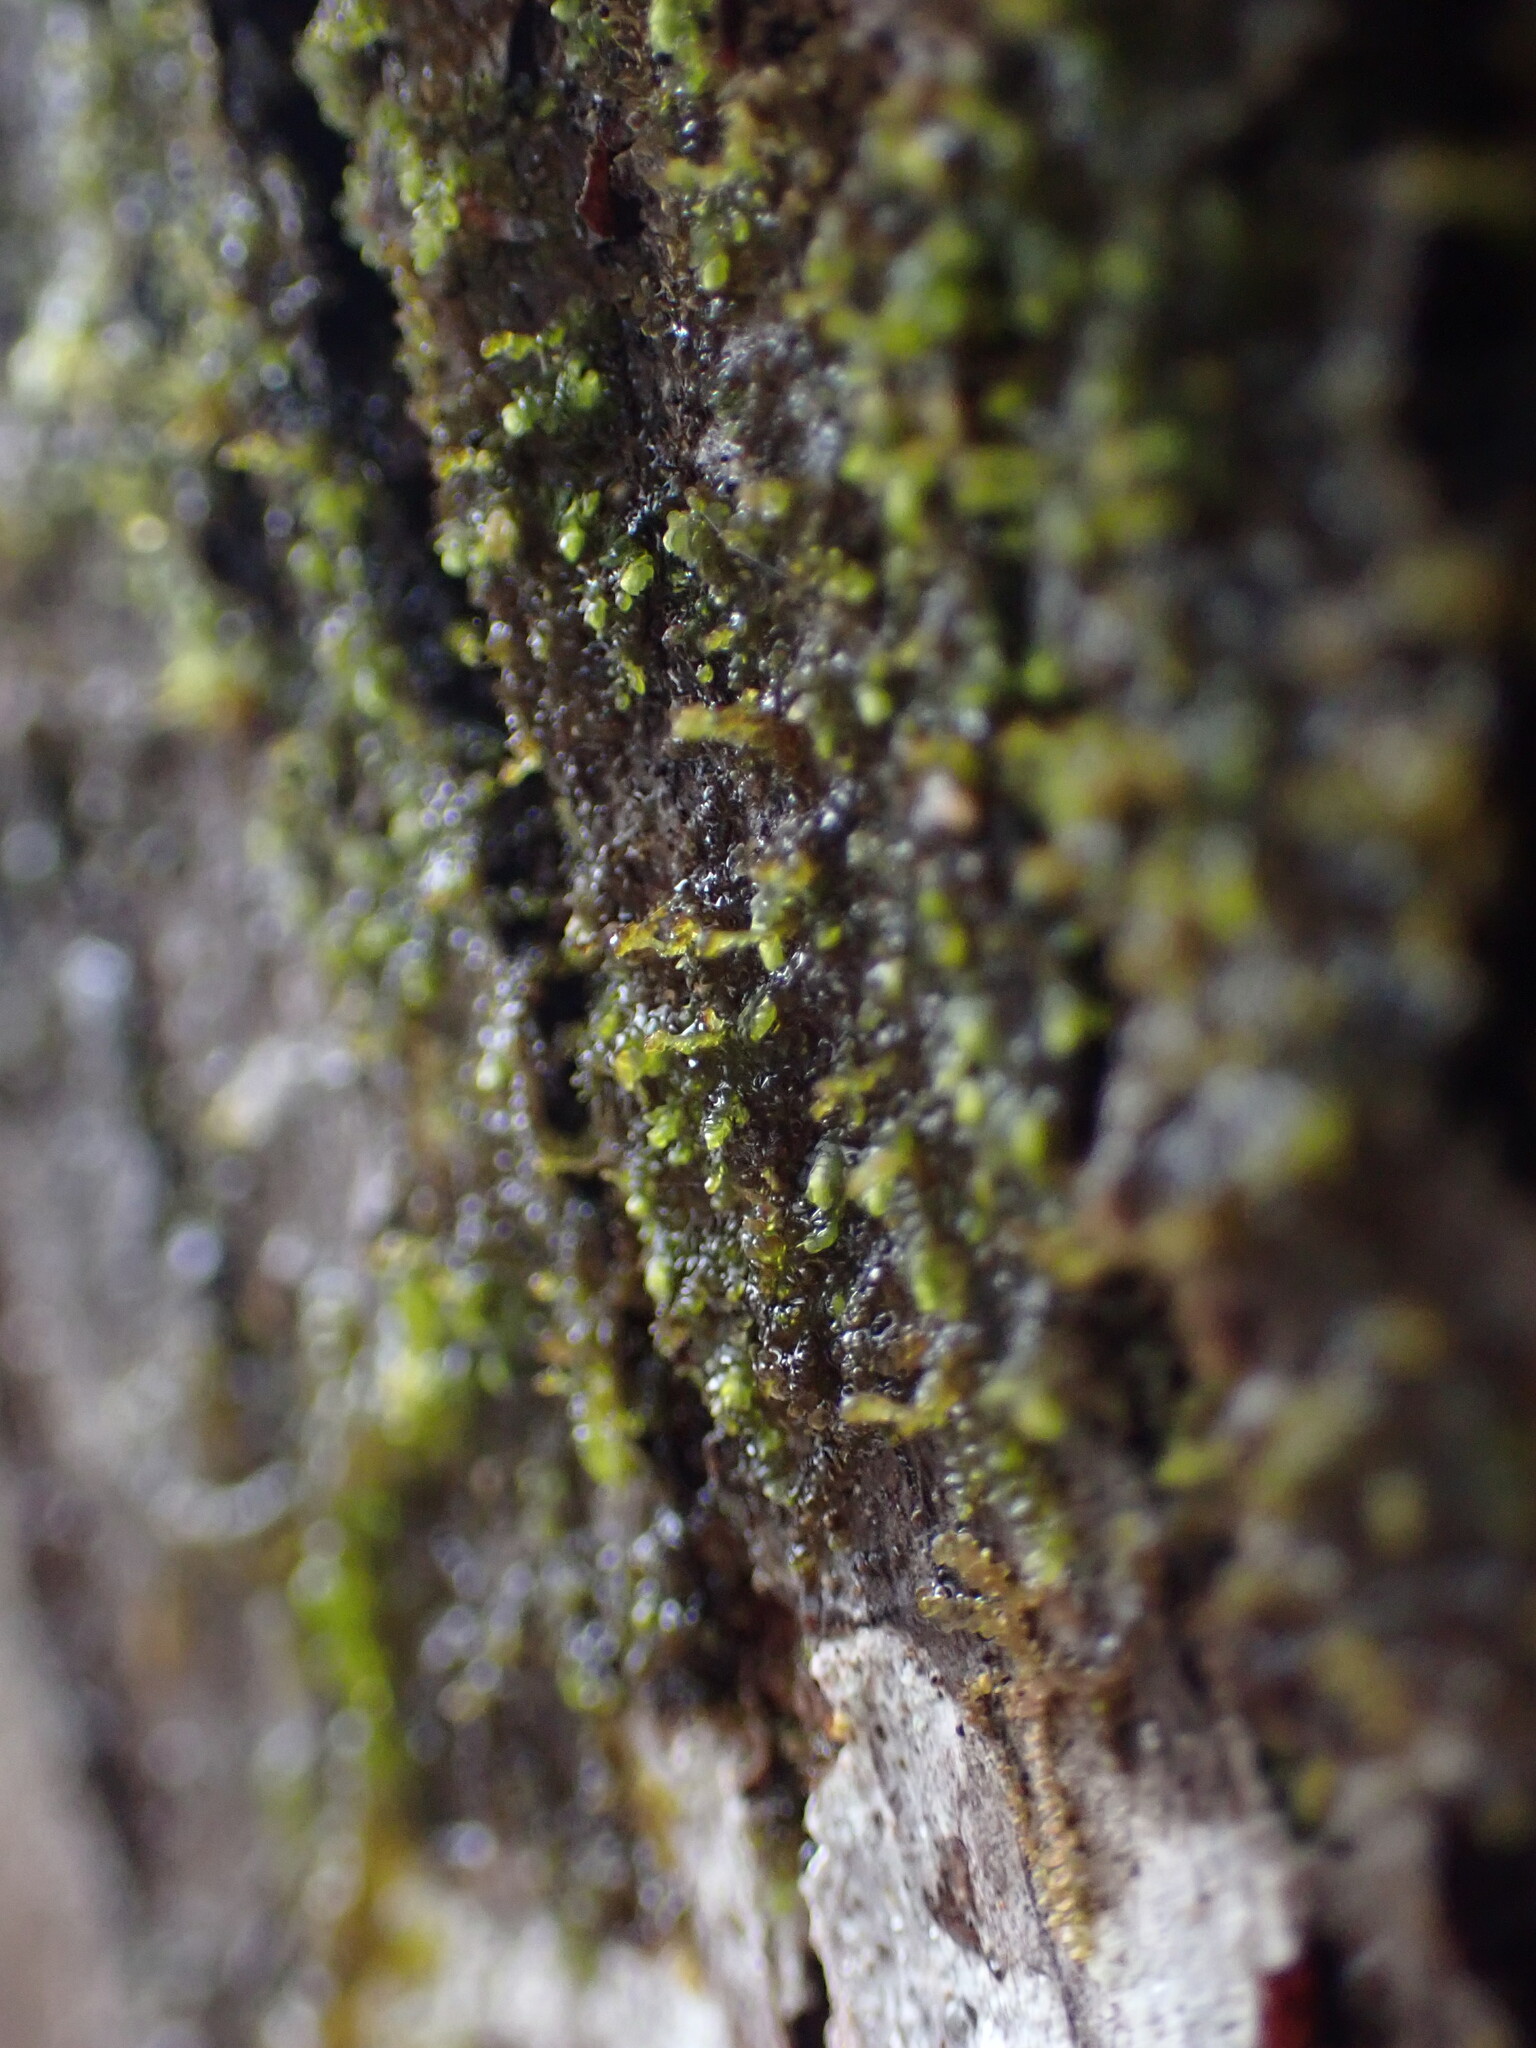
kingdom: Plantae
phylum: Marchantiophyta
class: Jungermanniopsida
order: Porellales
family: Frullaniaceae
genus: Frullania
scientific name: Frullania bolanderi
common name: Bolander s scalewort
